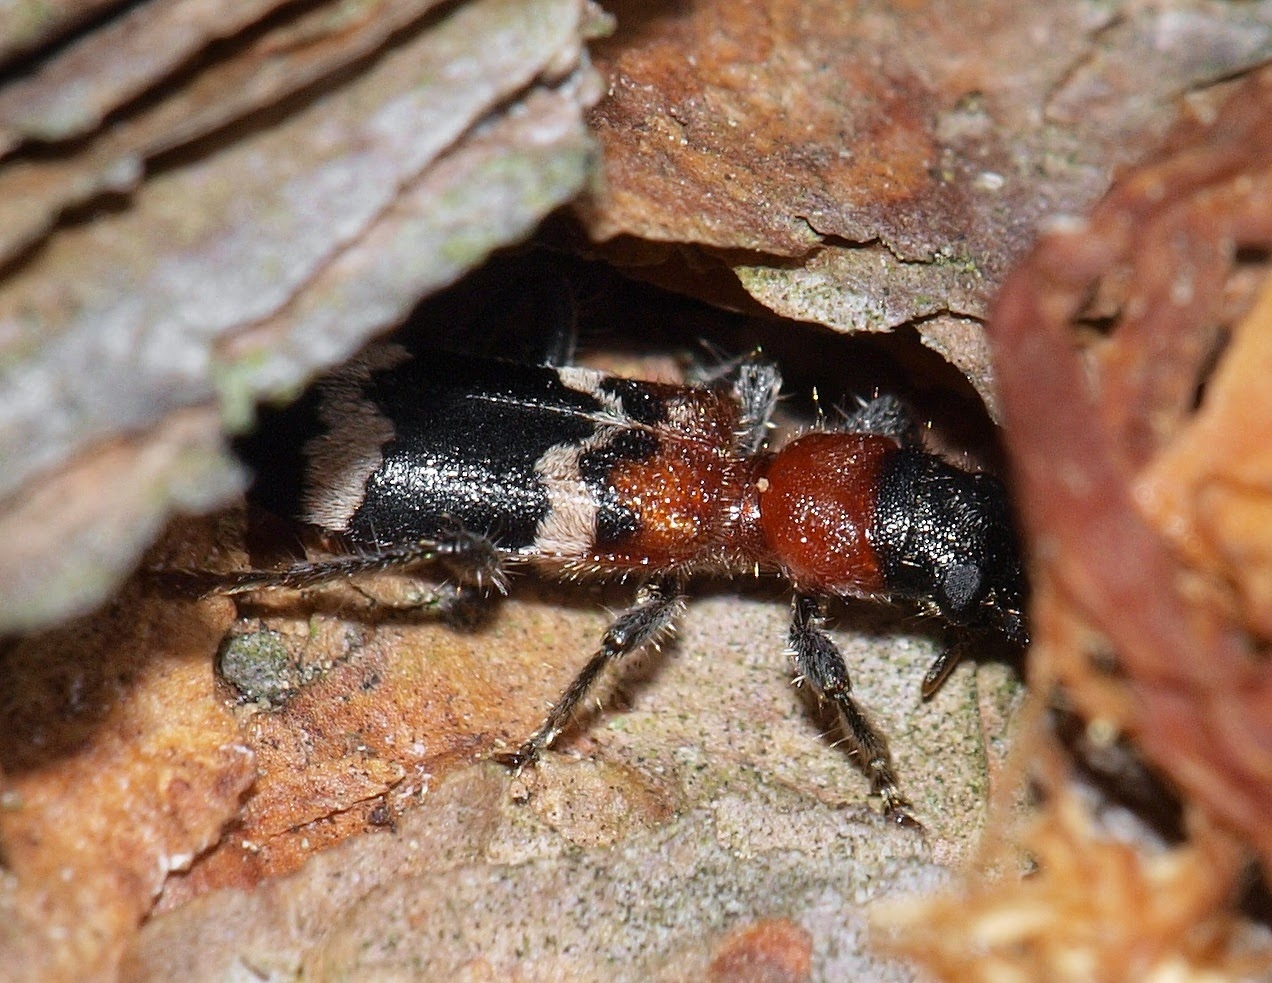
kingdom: Animalia
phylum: Arthropoda
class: Insecta
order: Coleoptera
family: Cleridae
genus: Thanasimus
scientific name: Thanasimus formicarius
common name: Ant beetle
